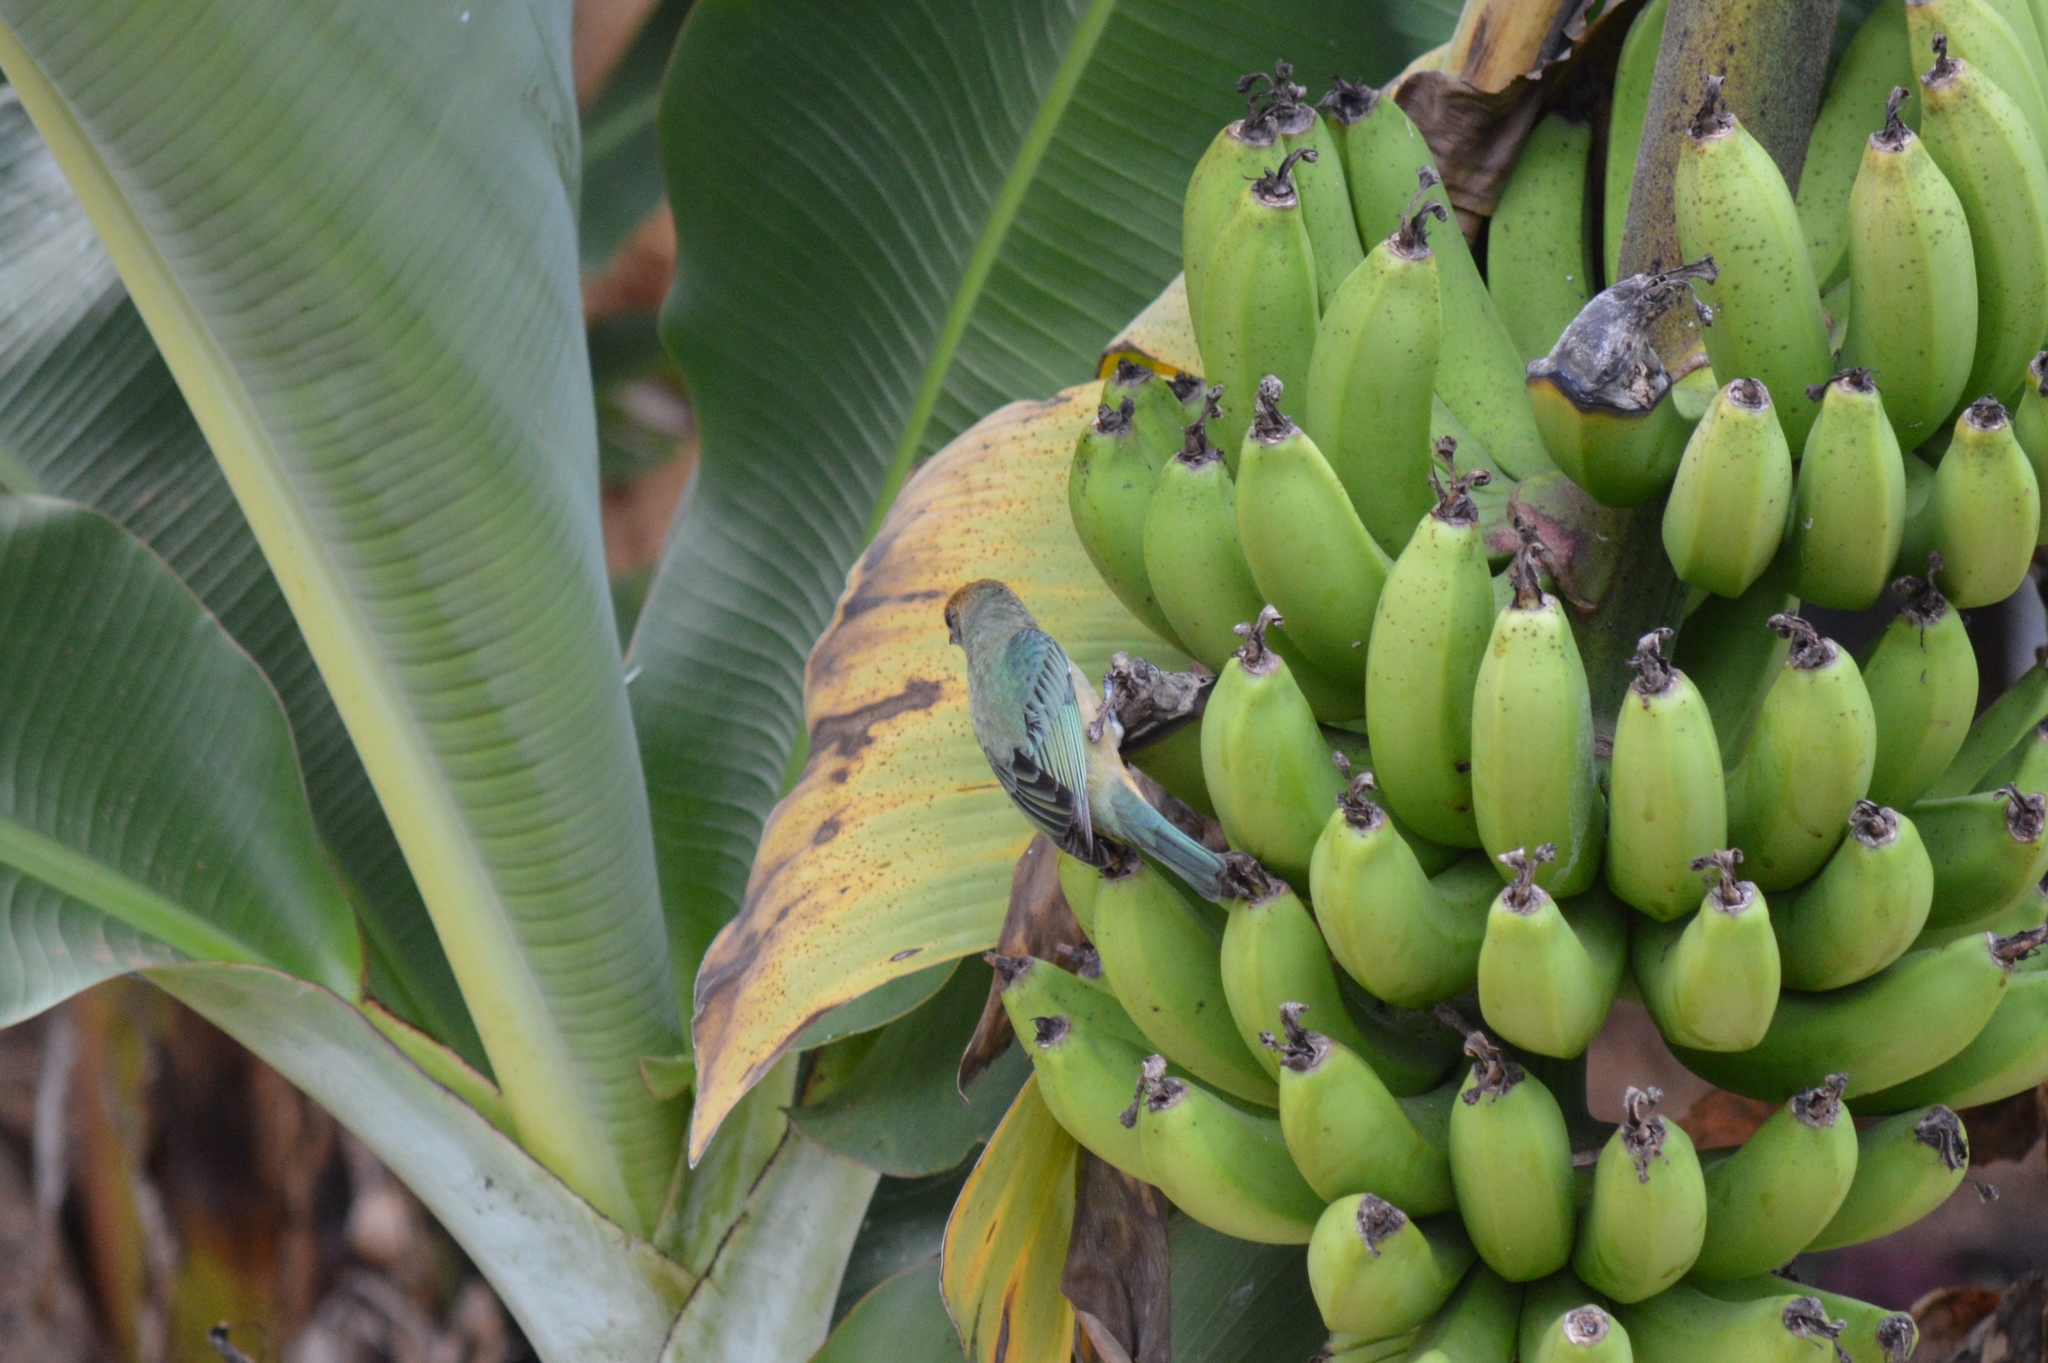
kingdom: Animalia
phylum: Chordata
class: Aves
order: Passeriformes
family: Thraupidae
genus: Stilpnia
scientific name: Stilpnia cayana
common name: Burnished-buff tanager
